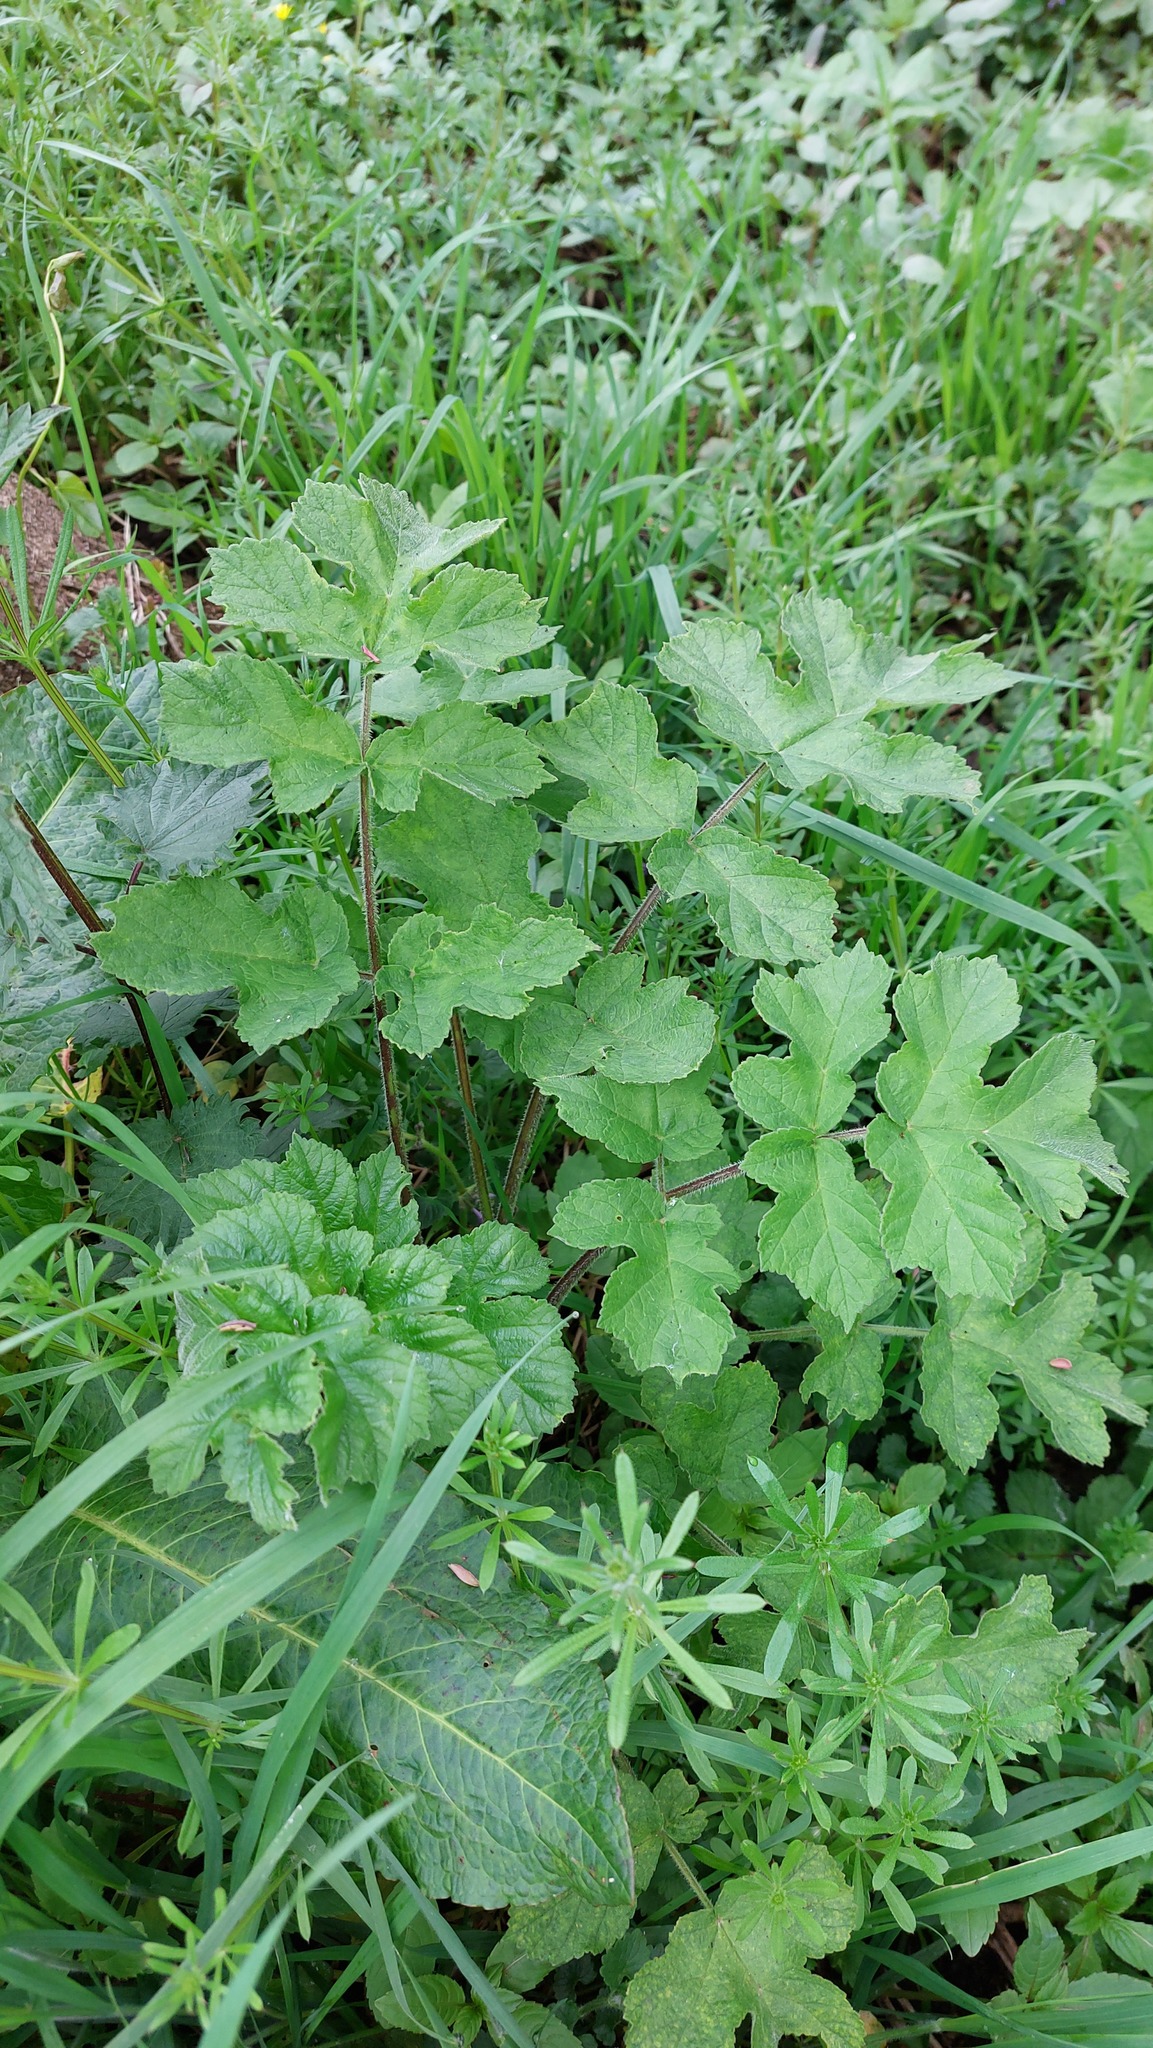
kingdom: Plantae
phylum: Tracheophyta
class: Magnoliopsida
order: Apiales
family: Apiaceae
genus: Heracleum
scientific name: Heracleum sphondylium
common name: Hogweed
